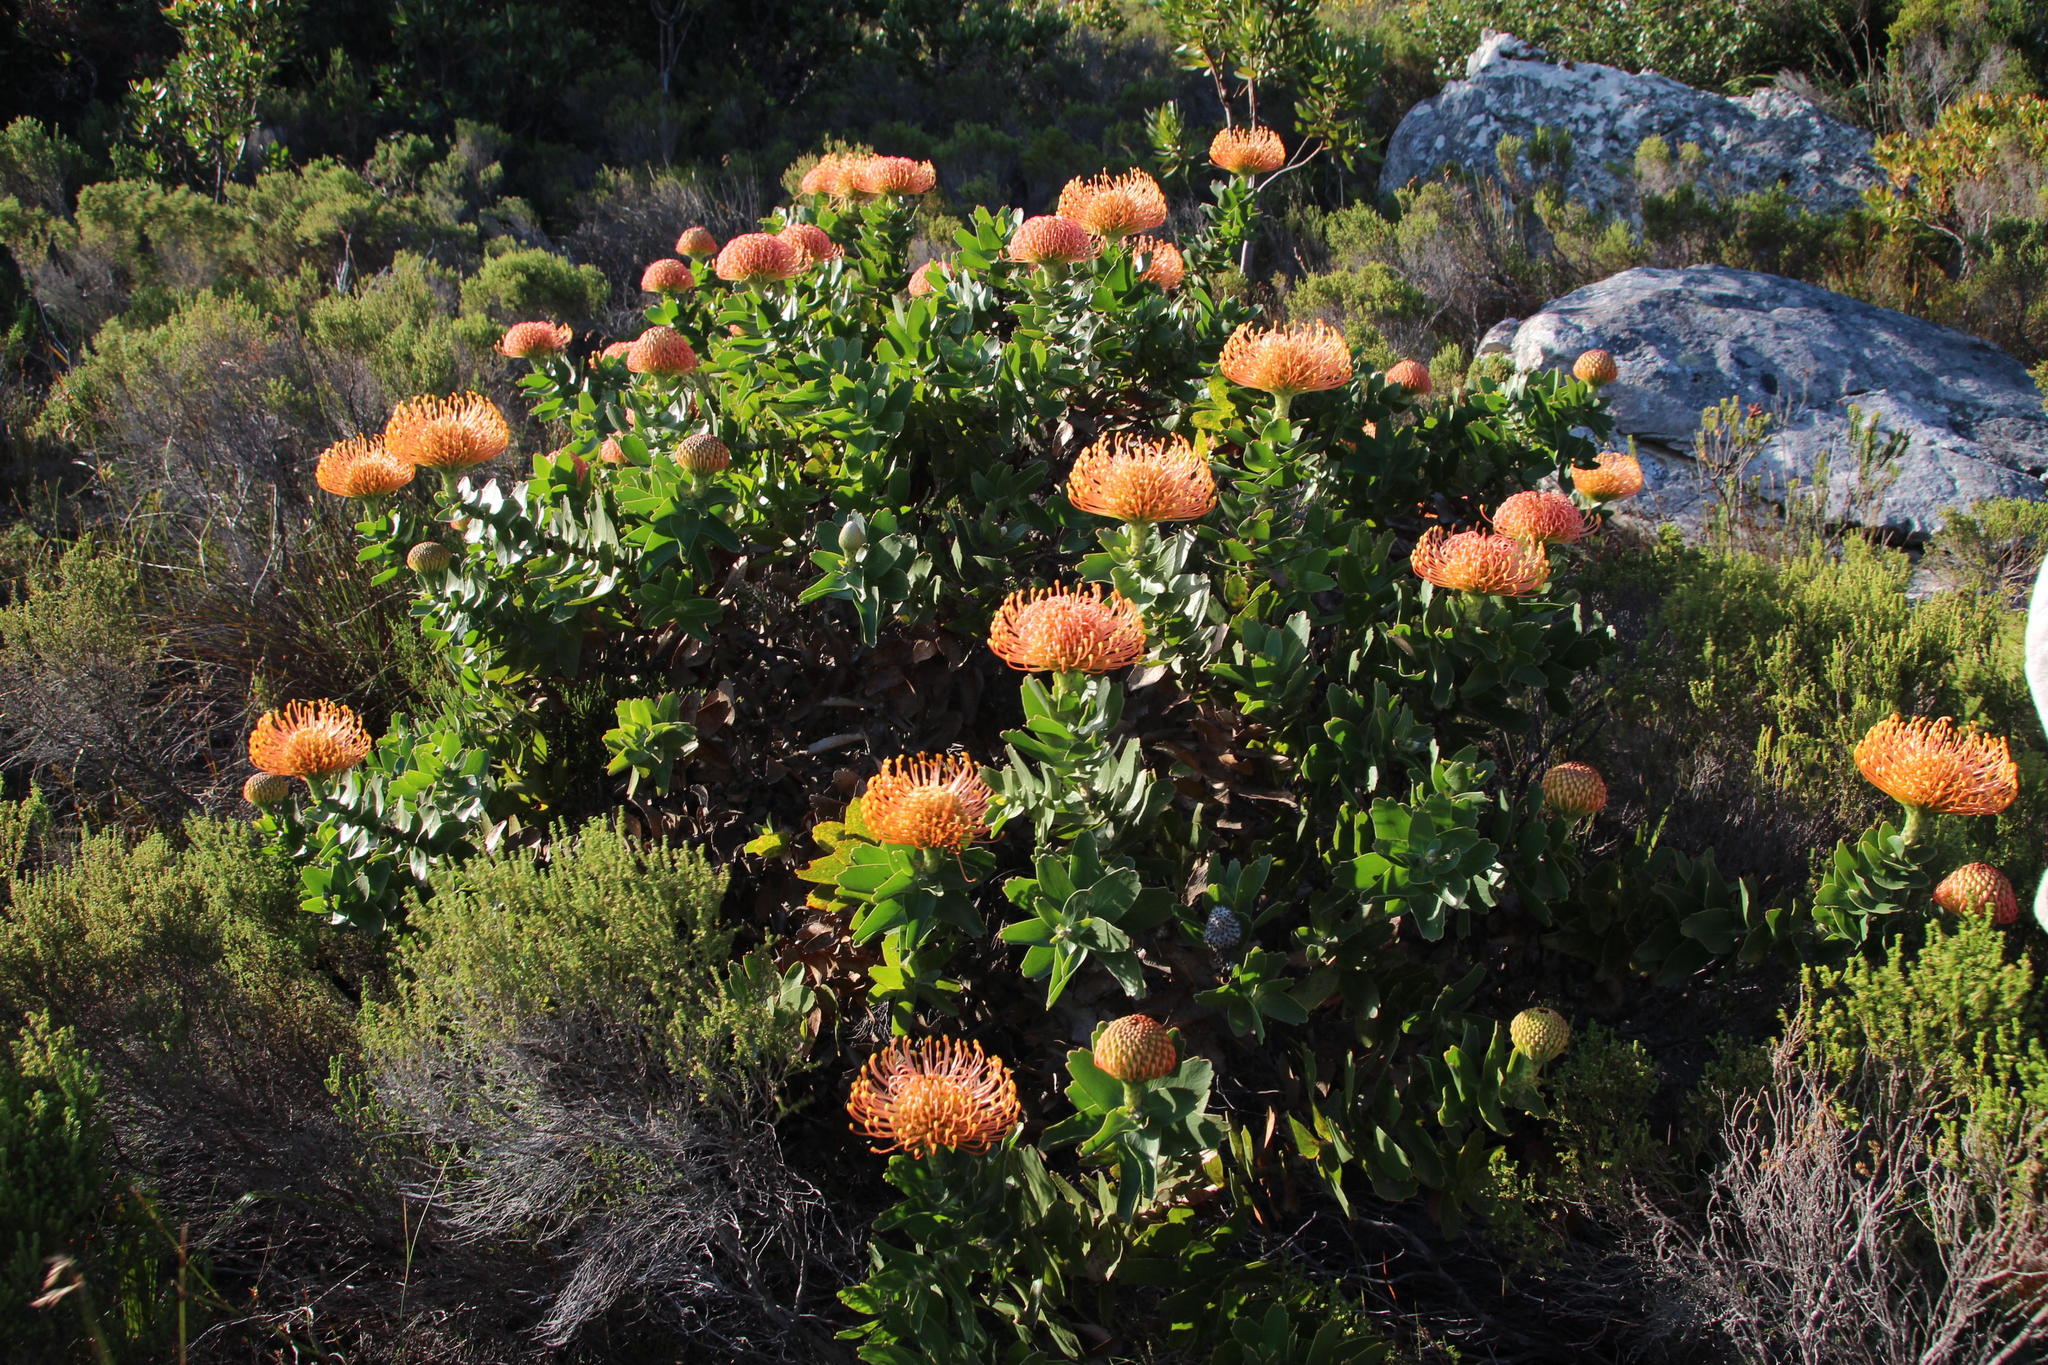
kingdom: Plantae
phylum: Tracheophyta
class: Magnoliopsida
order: Proteales
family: Proteaceae
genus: Leucospermum
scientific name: Leucospermum cordifolium
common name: Red pincushion-protea
